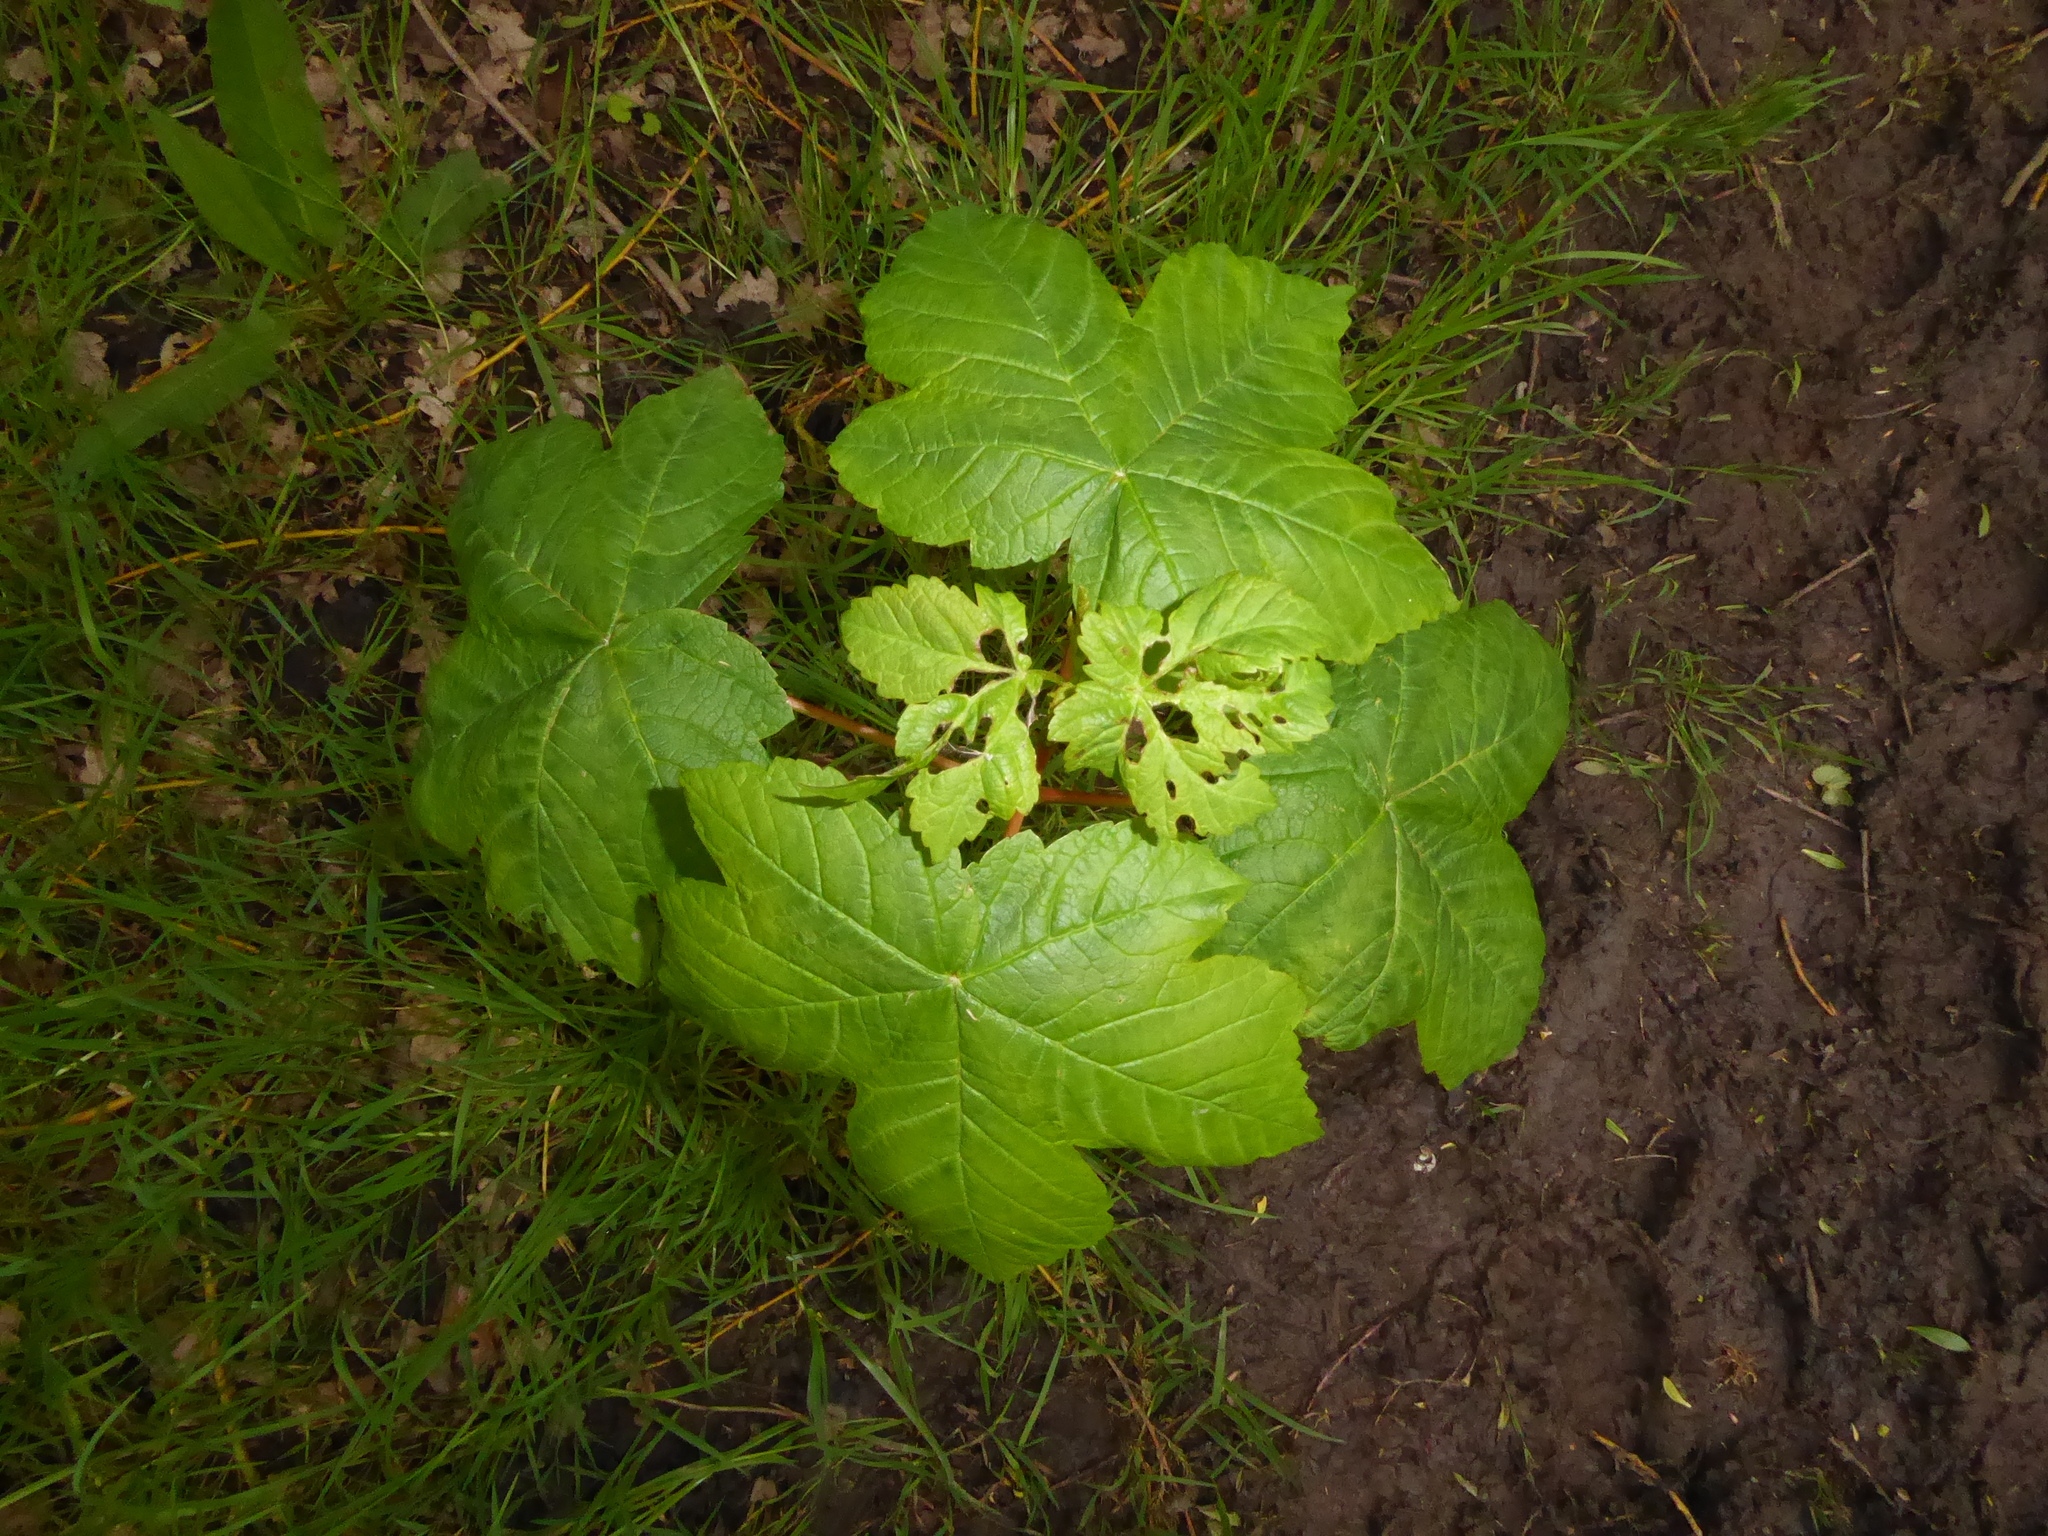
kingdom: Plantae
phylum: Tracheophyta
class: Magnoliopsida
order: Sapindales
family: Sapindaceae
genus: Acer
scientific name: Acer pseudoplatanus
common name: Sycamore
